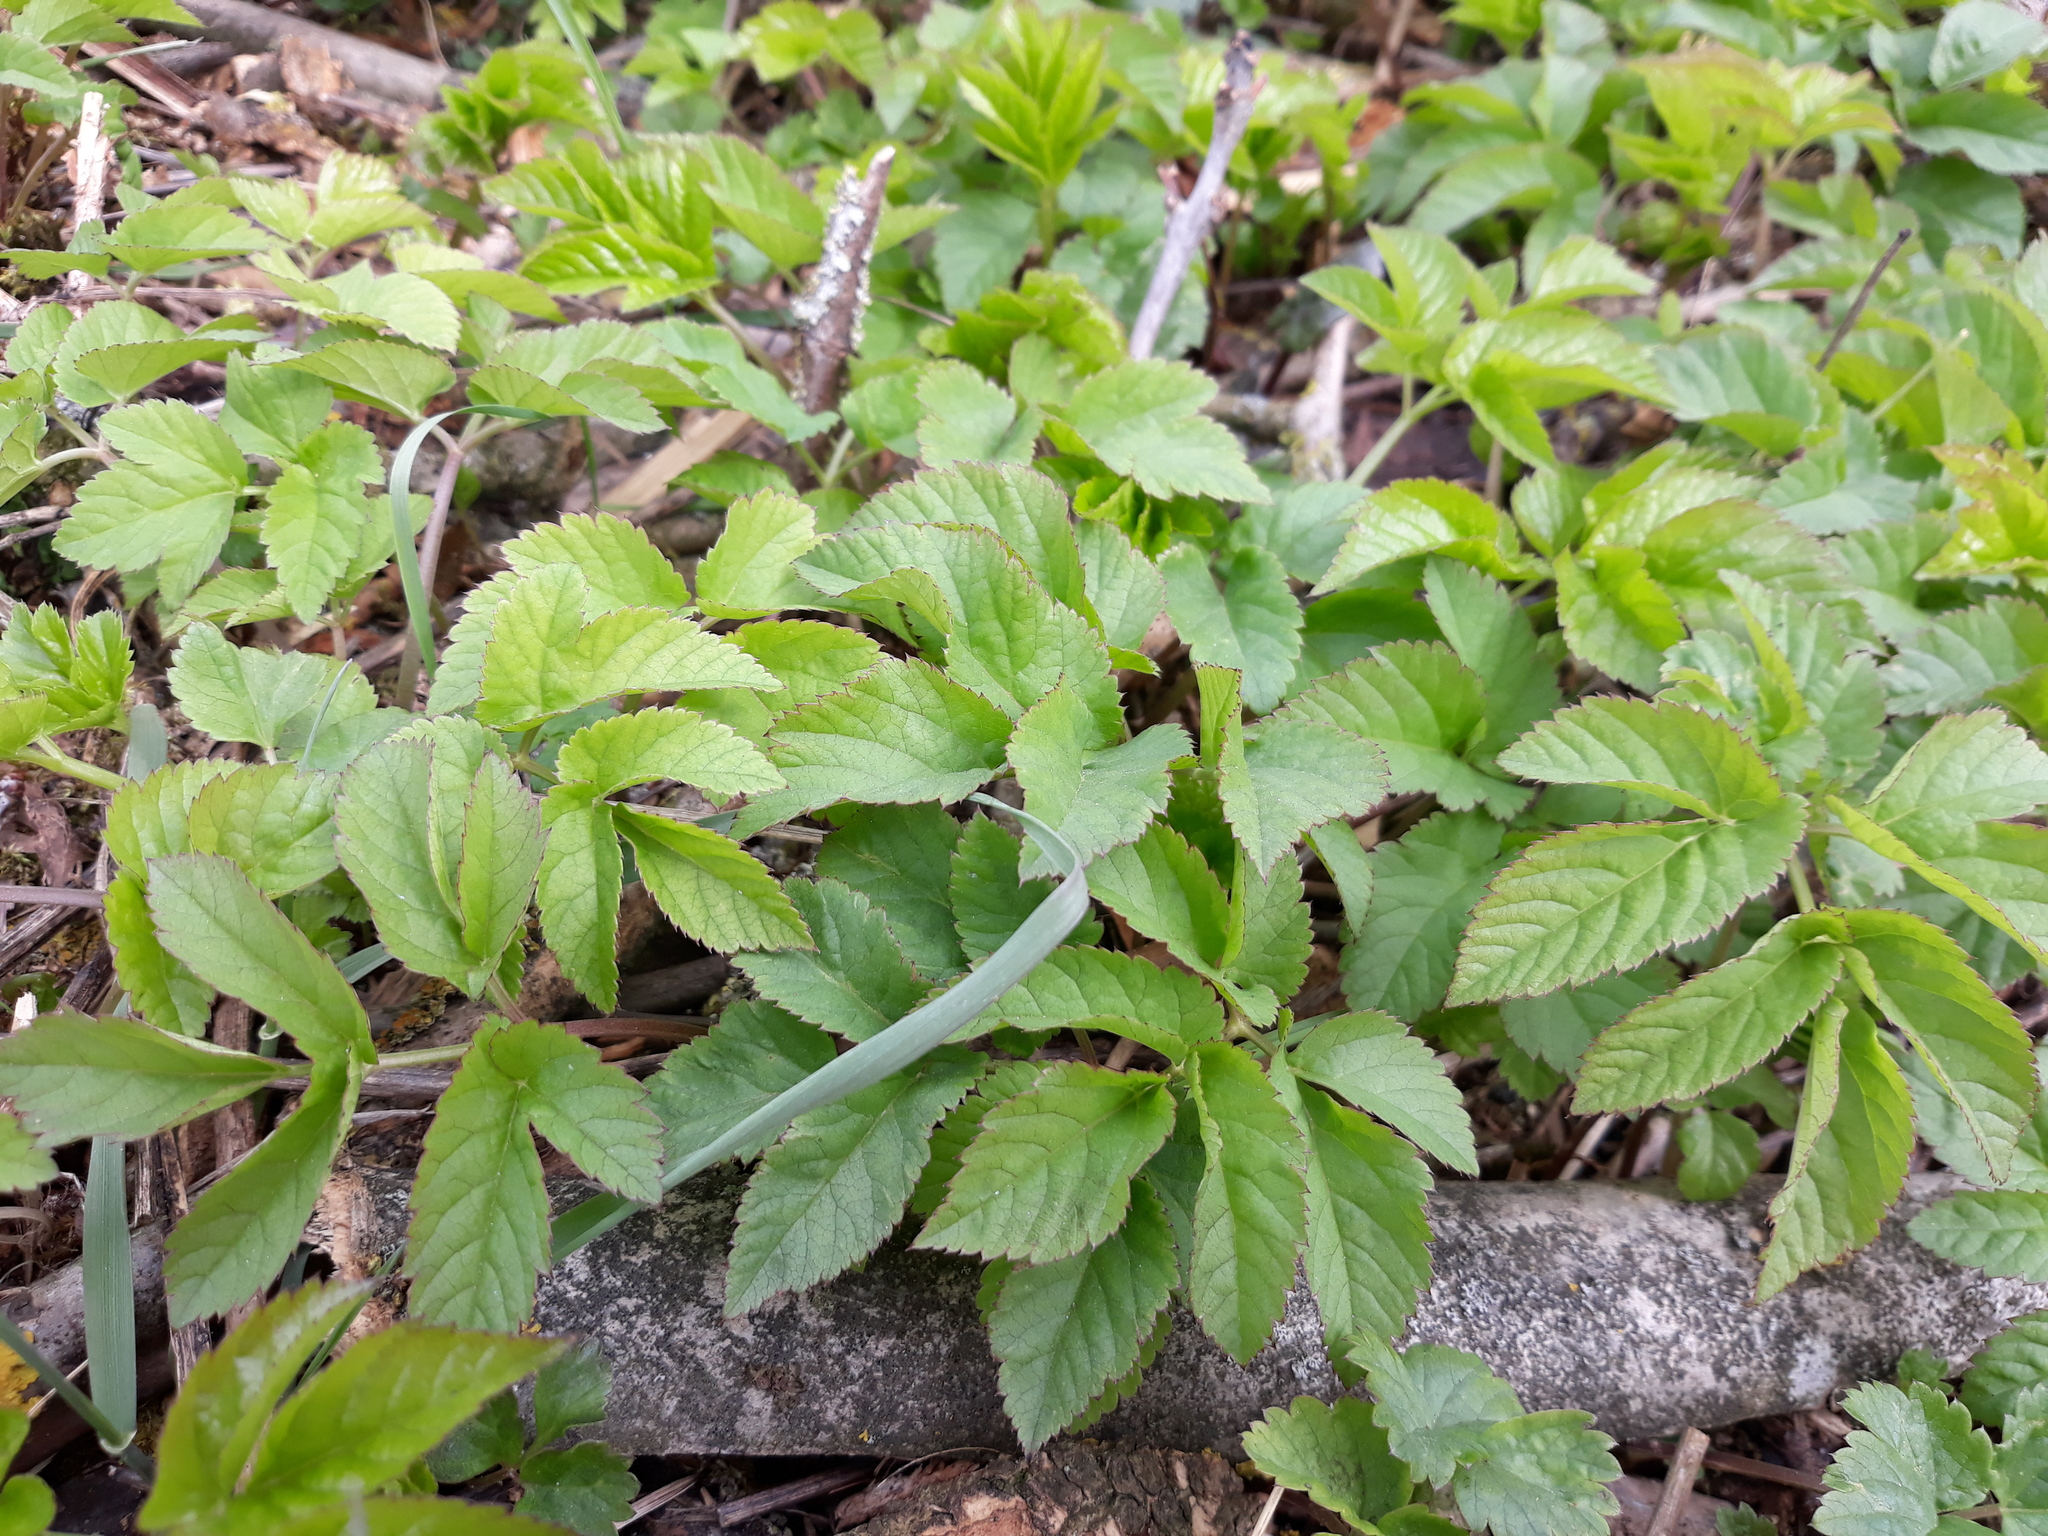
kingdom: Plantae
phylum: Tracheophyta
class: Magnoliopsida
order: Apiales
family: Apiaceae
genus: Aegopodium
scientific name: Aegopodium podagraria
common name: Ground-elder
